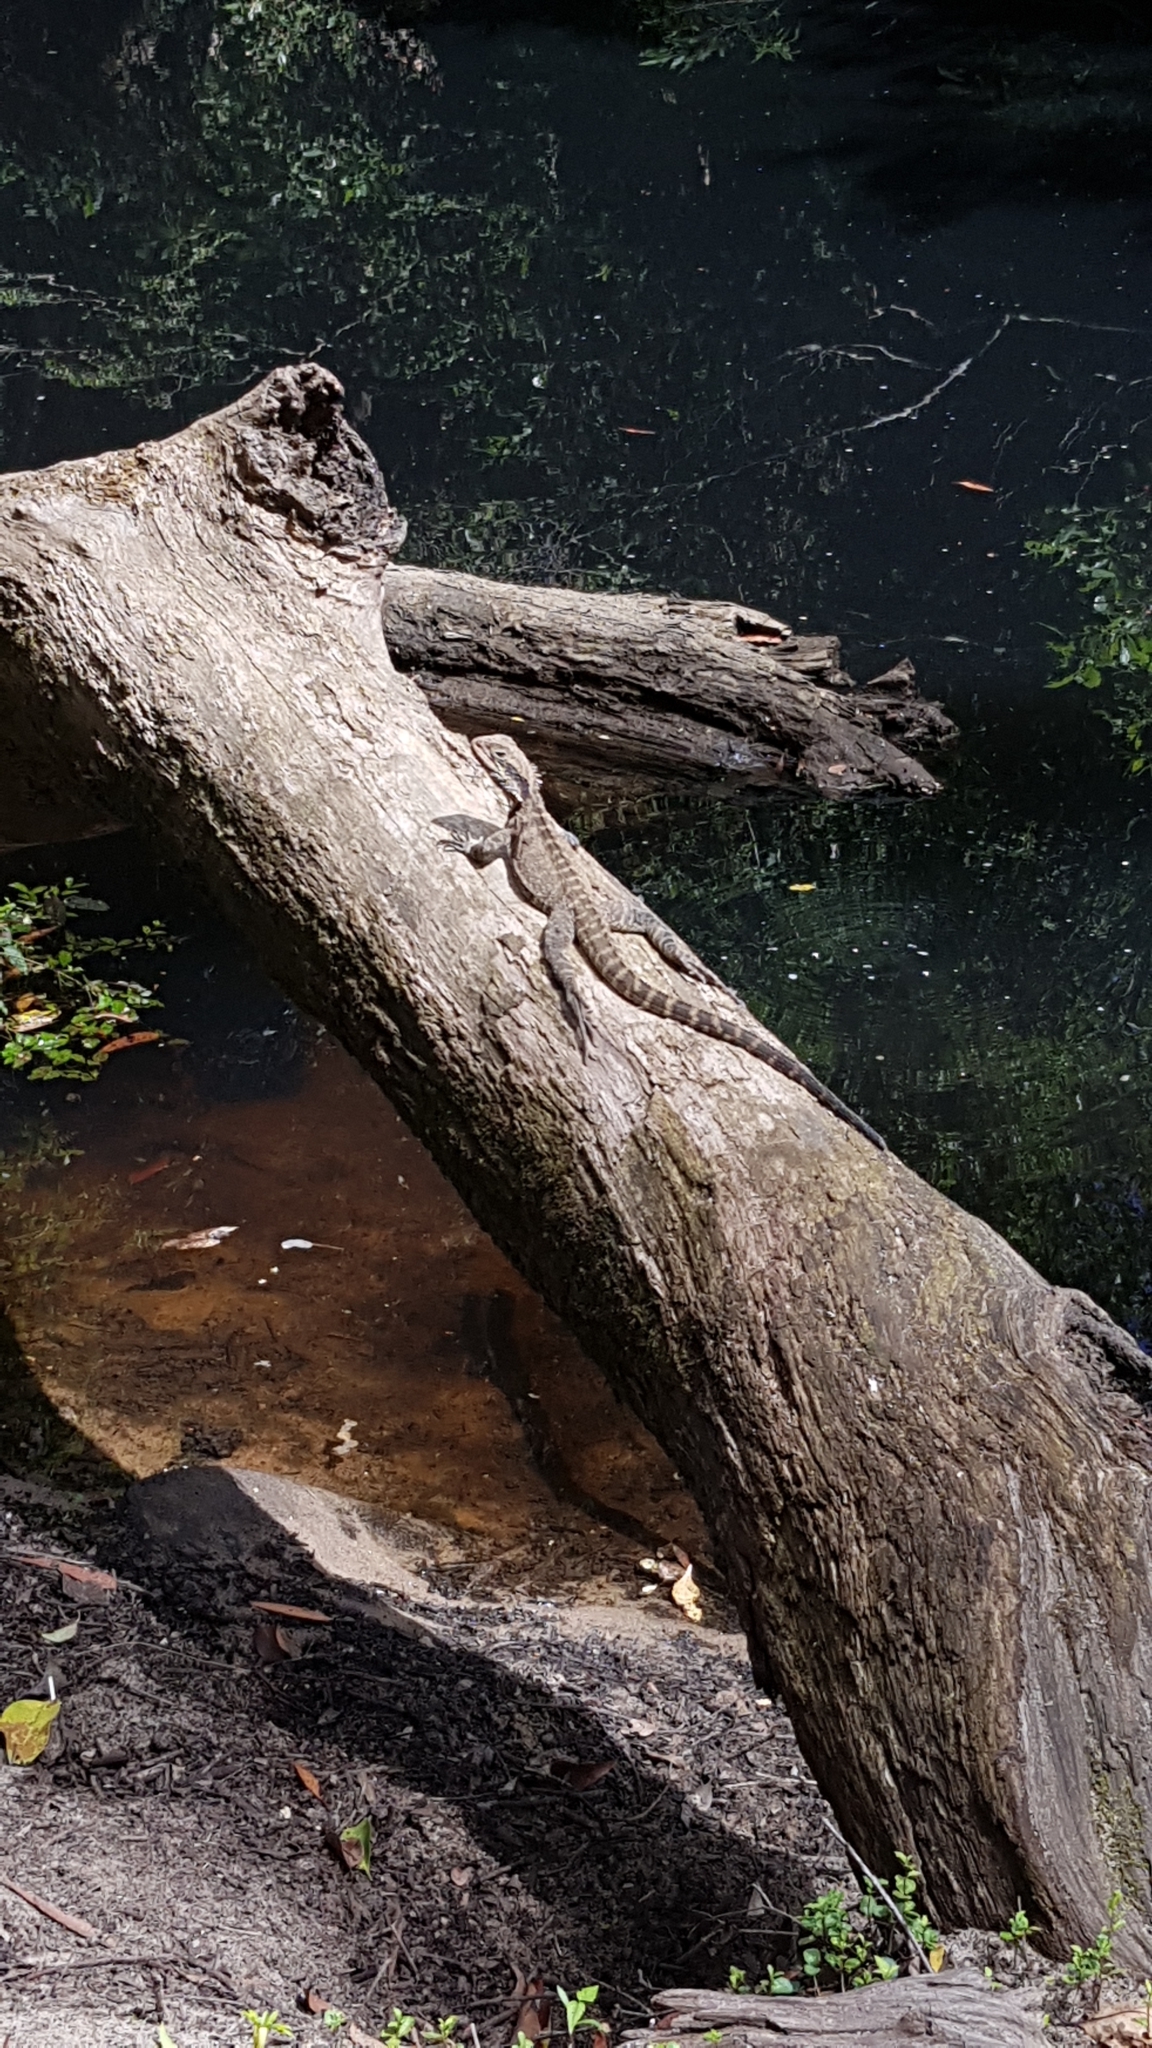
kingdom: Animalia
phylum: Chordata
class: Squamata
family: Agamidae
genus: Intellagama
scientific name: Intellagama lesueurii
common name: Eastern water dragon
